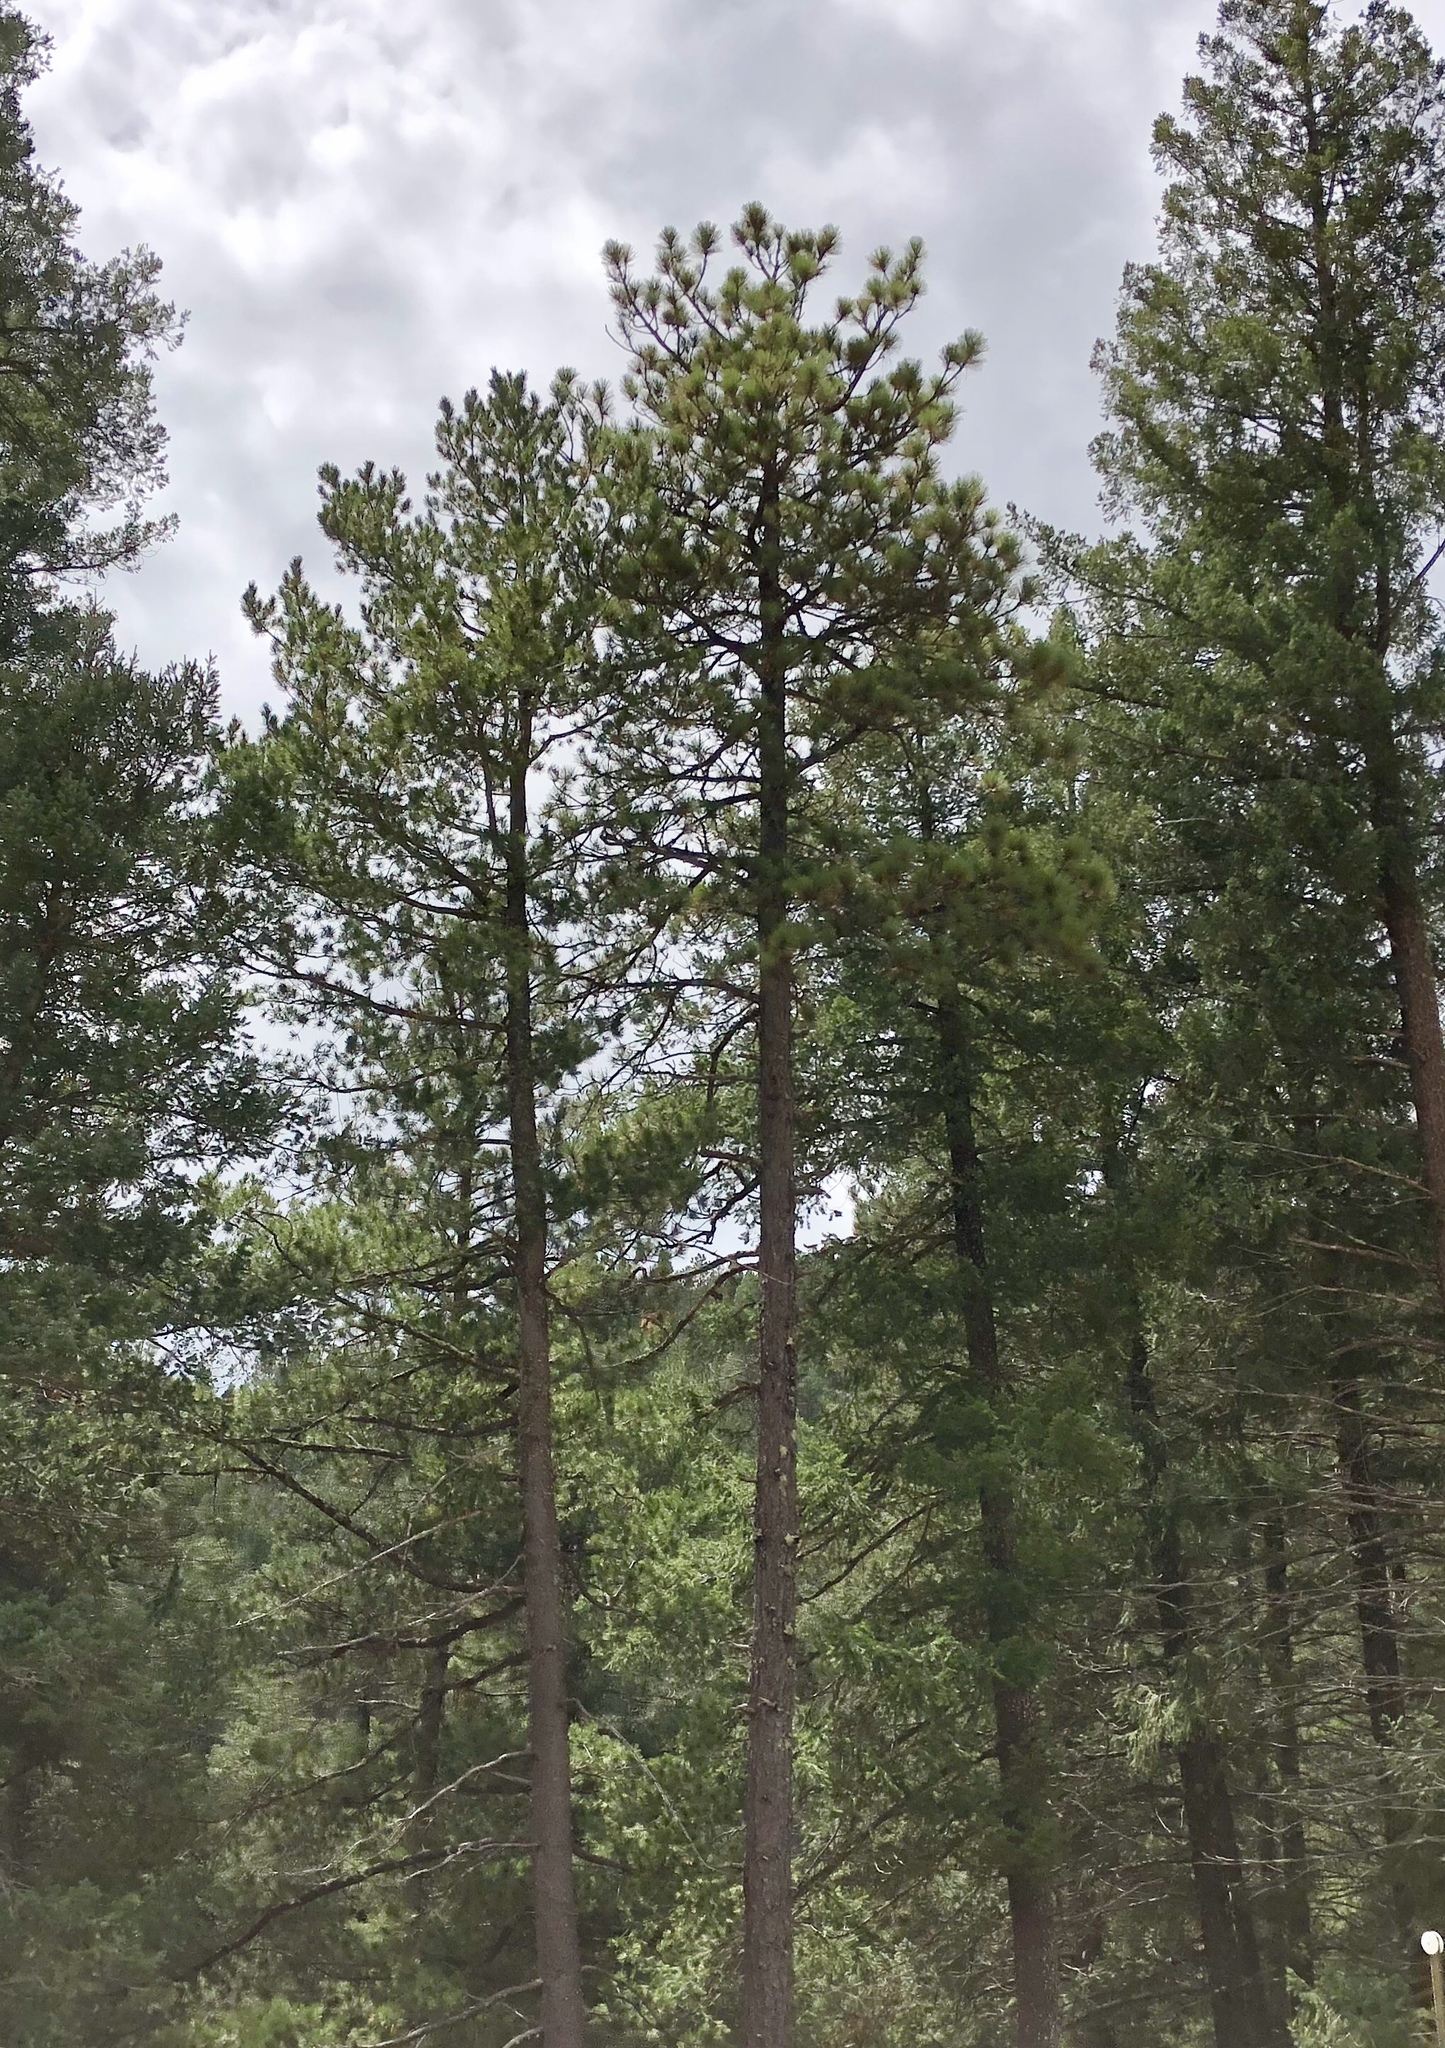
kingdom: Plantae
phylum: Tracheophyta
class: Pinopsida
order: Pinales
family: Pinaceae
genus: Pinus
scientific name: Pinus ponderosa
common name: Western yellow-pine
